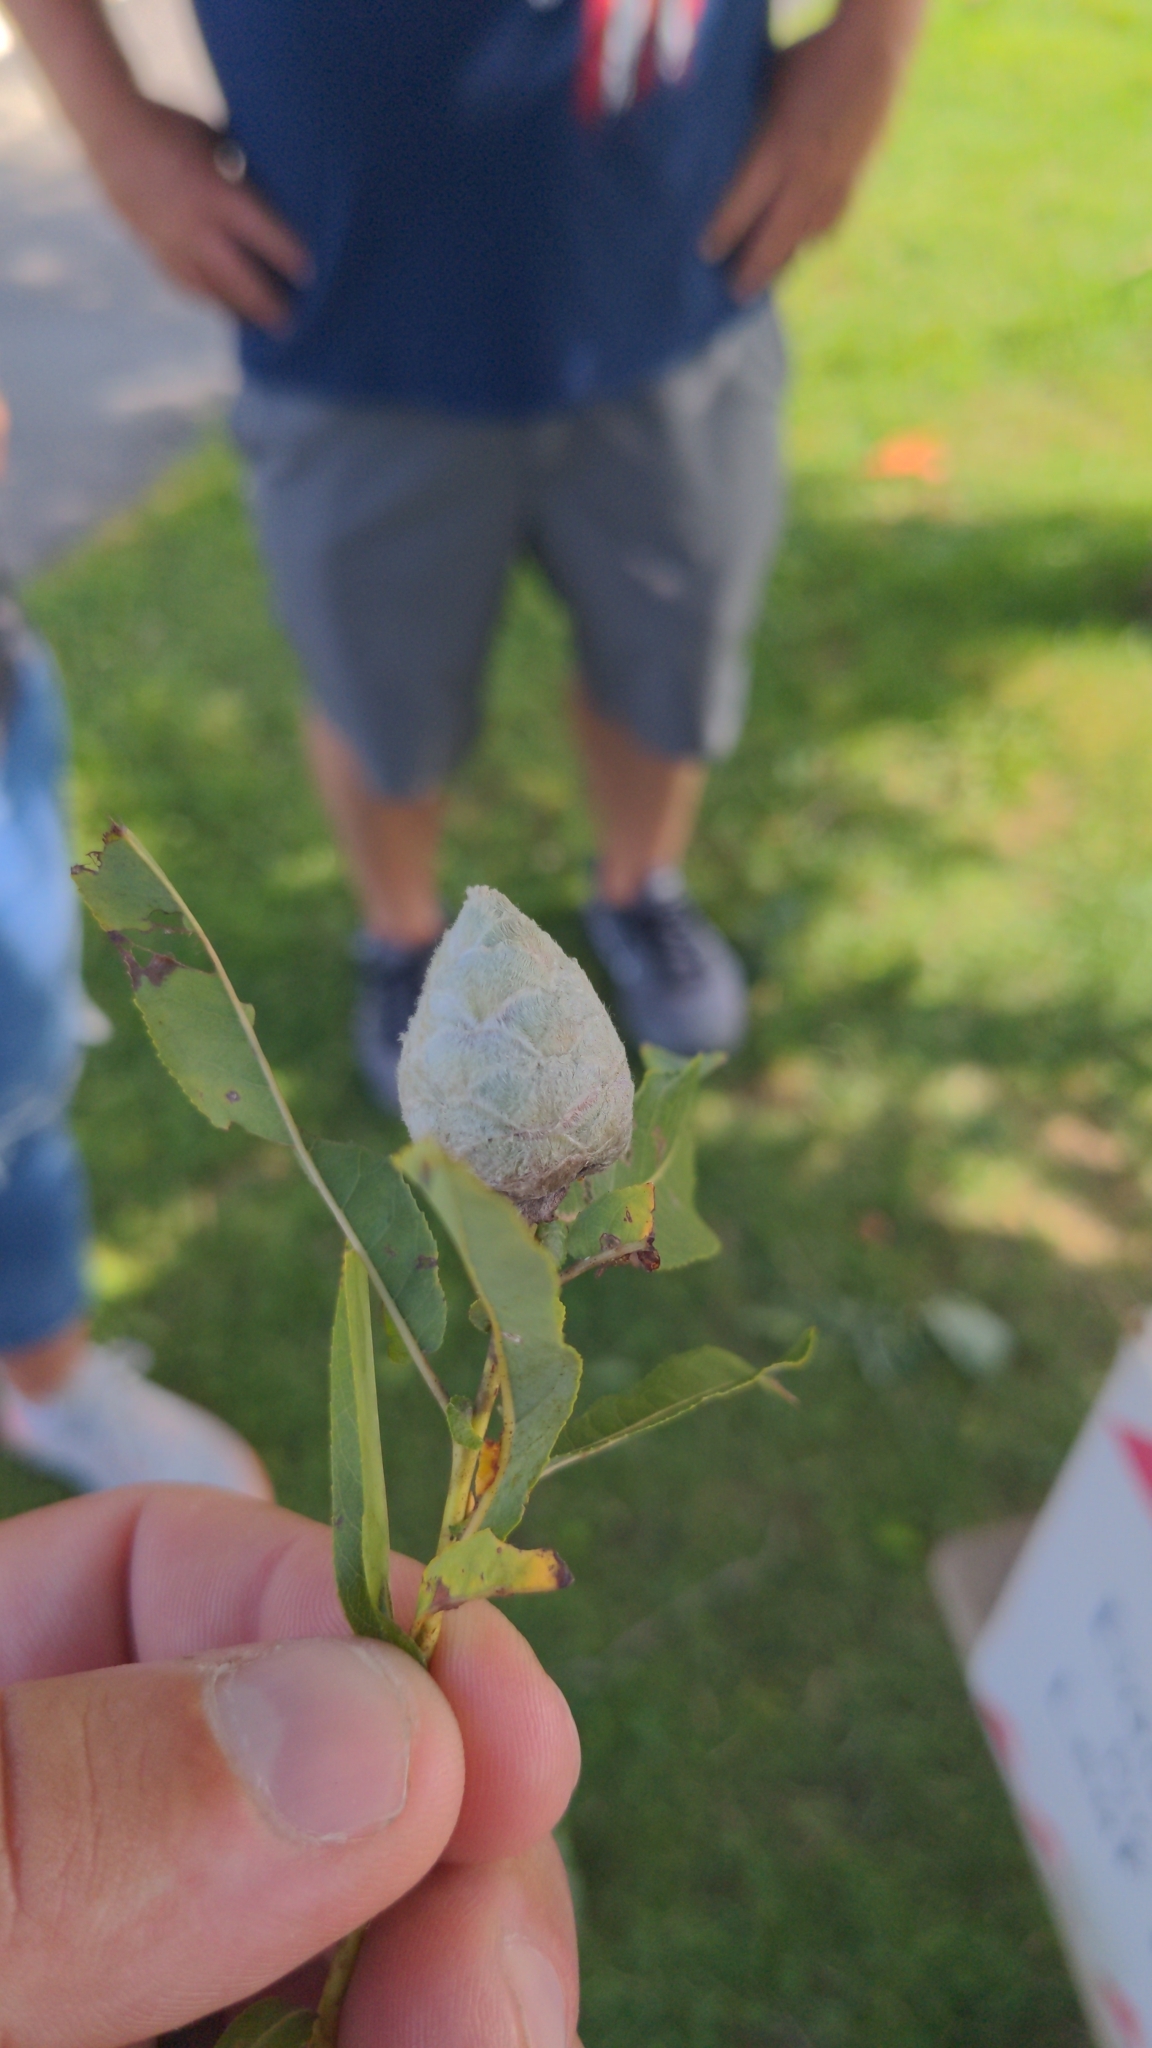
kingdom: Animalia
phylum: Arthropoda
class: Insecta
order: Diptera
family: Cecidomyiidae
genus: Rabdophaga
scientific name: Rabdophaga strobiloides
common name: Willow pinecone gall midge
